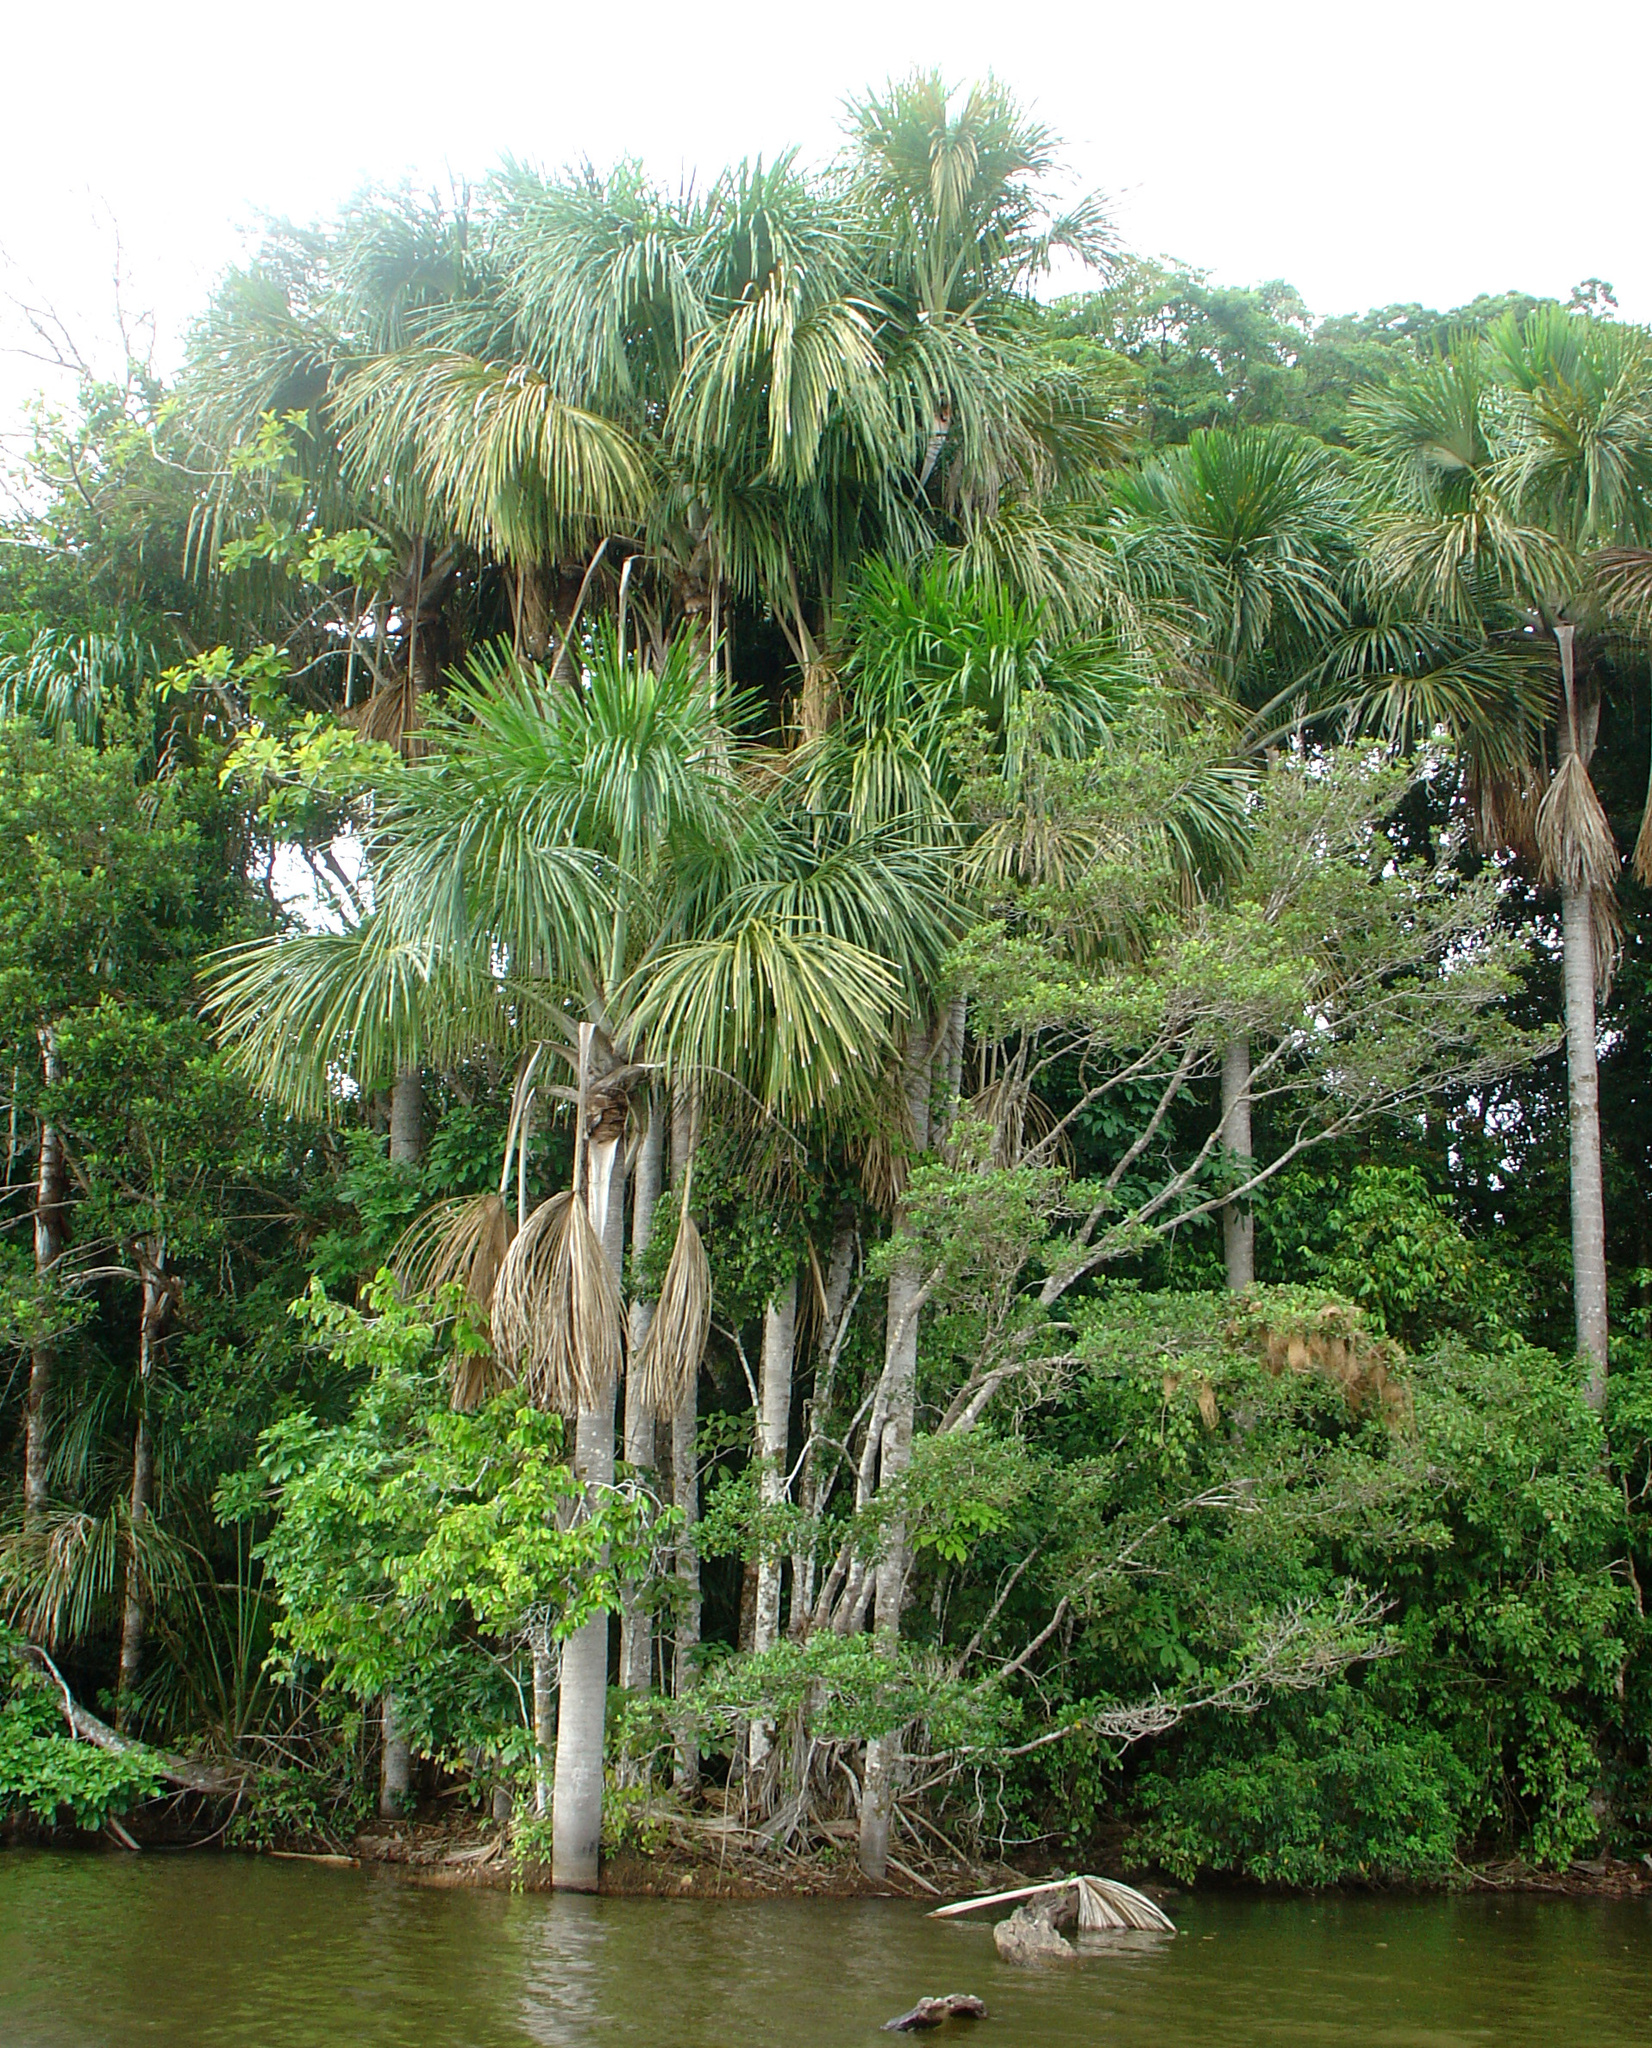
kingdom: Plantae
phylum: Tracheophyta
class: Liliopsida
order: Arecales
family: Arecaceae
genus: Mauritia
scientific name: Mauritia flexuosa
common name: Tree-of-life
